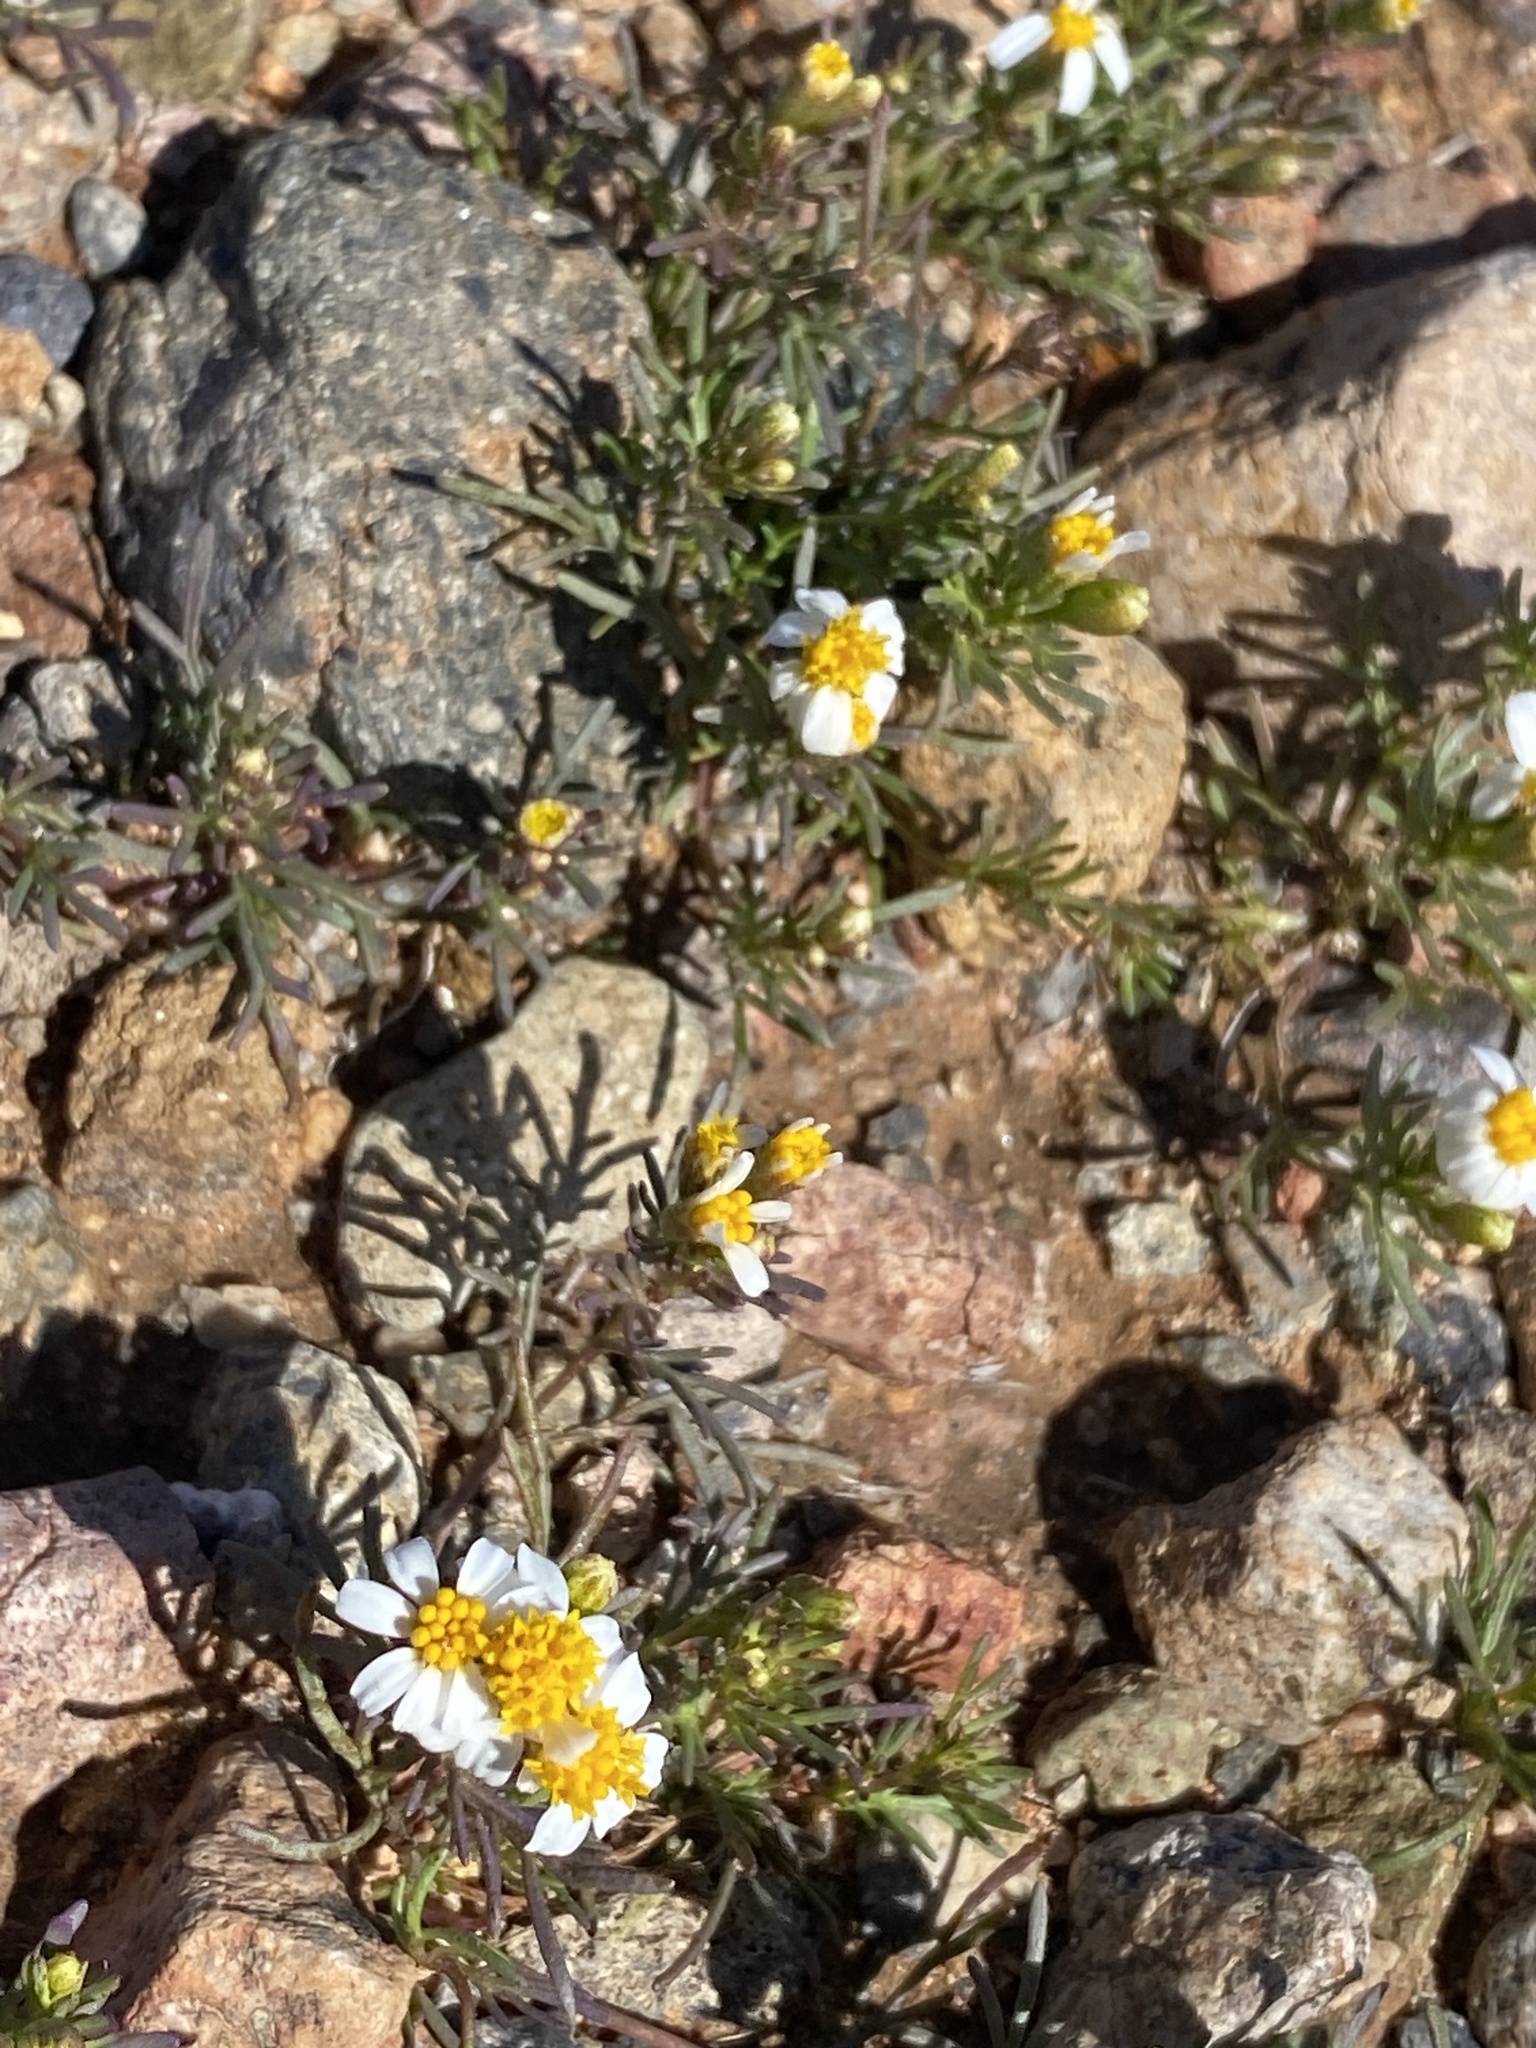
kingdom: Plantae
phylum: Tracheophyta
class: Magnoliopsida
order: Asterales
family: Asteraceae
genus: Thymophylla
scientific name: Thymophylla concinna
